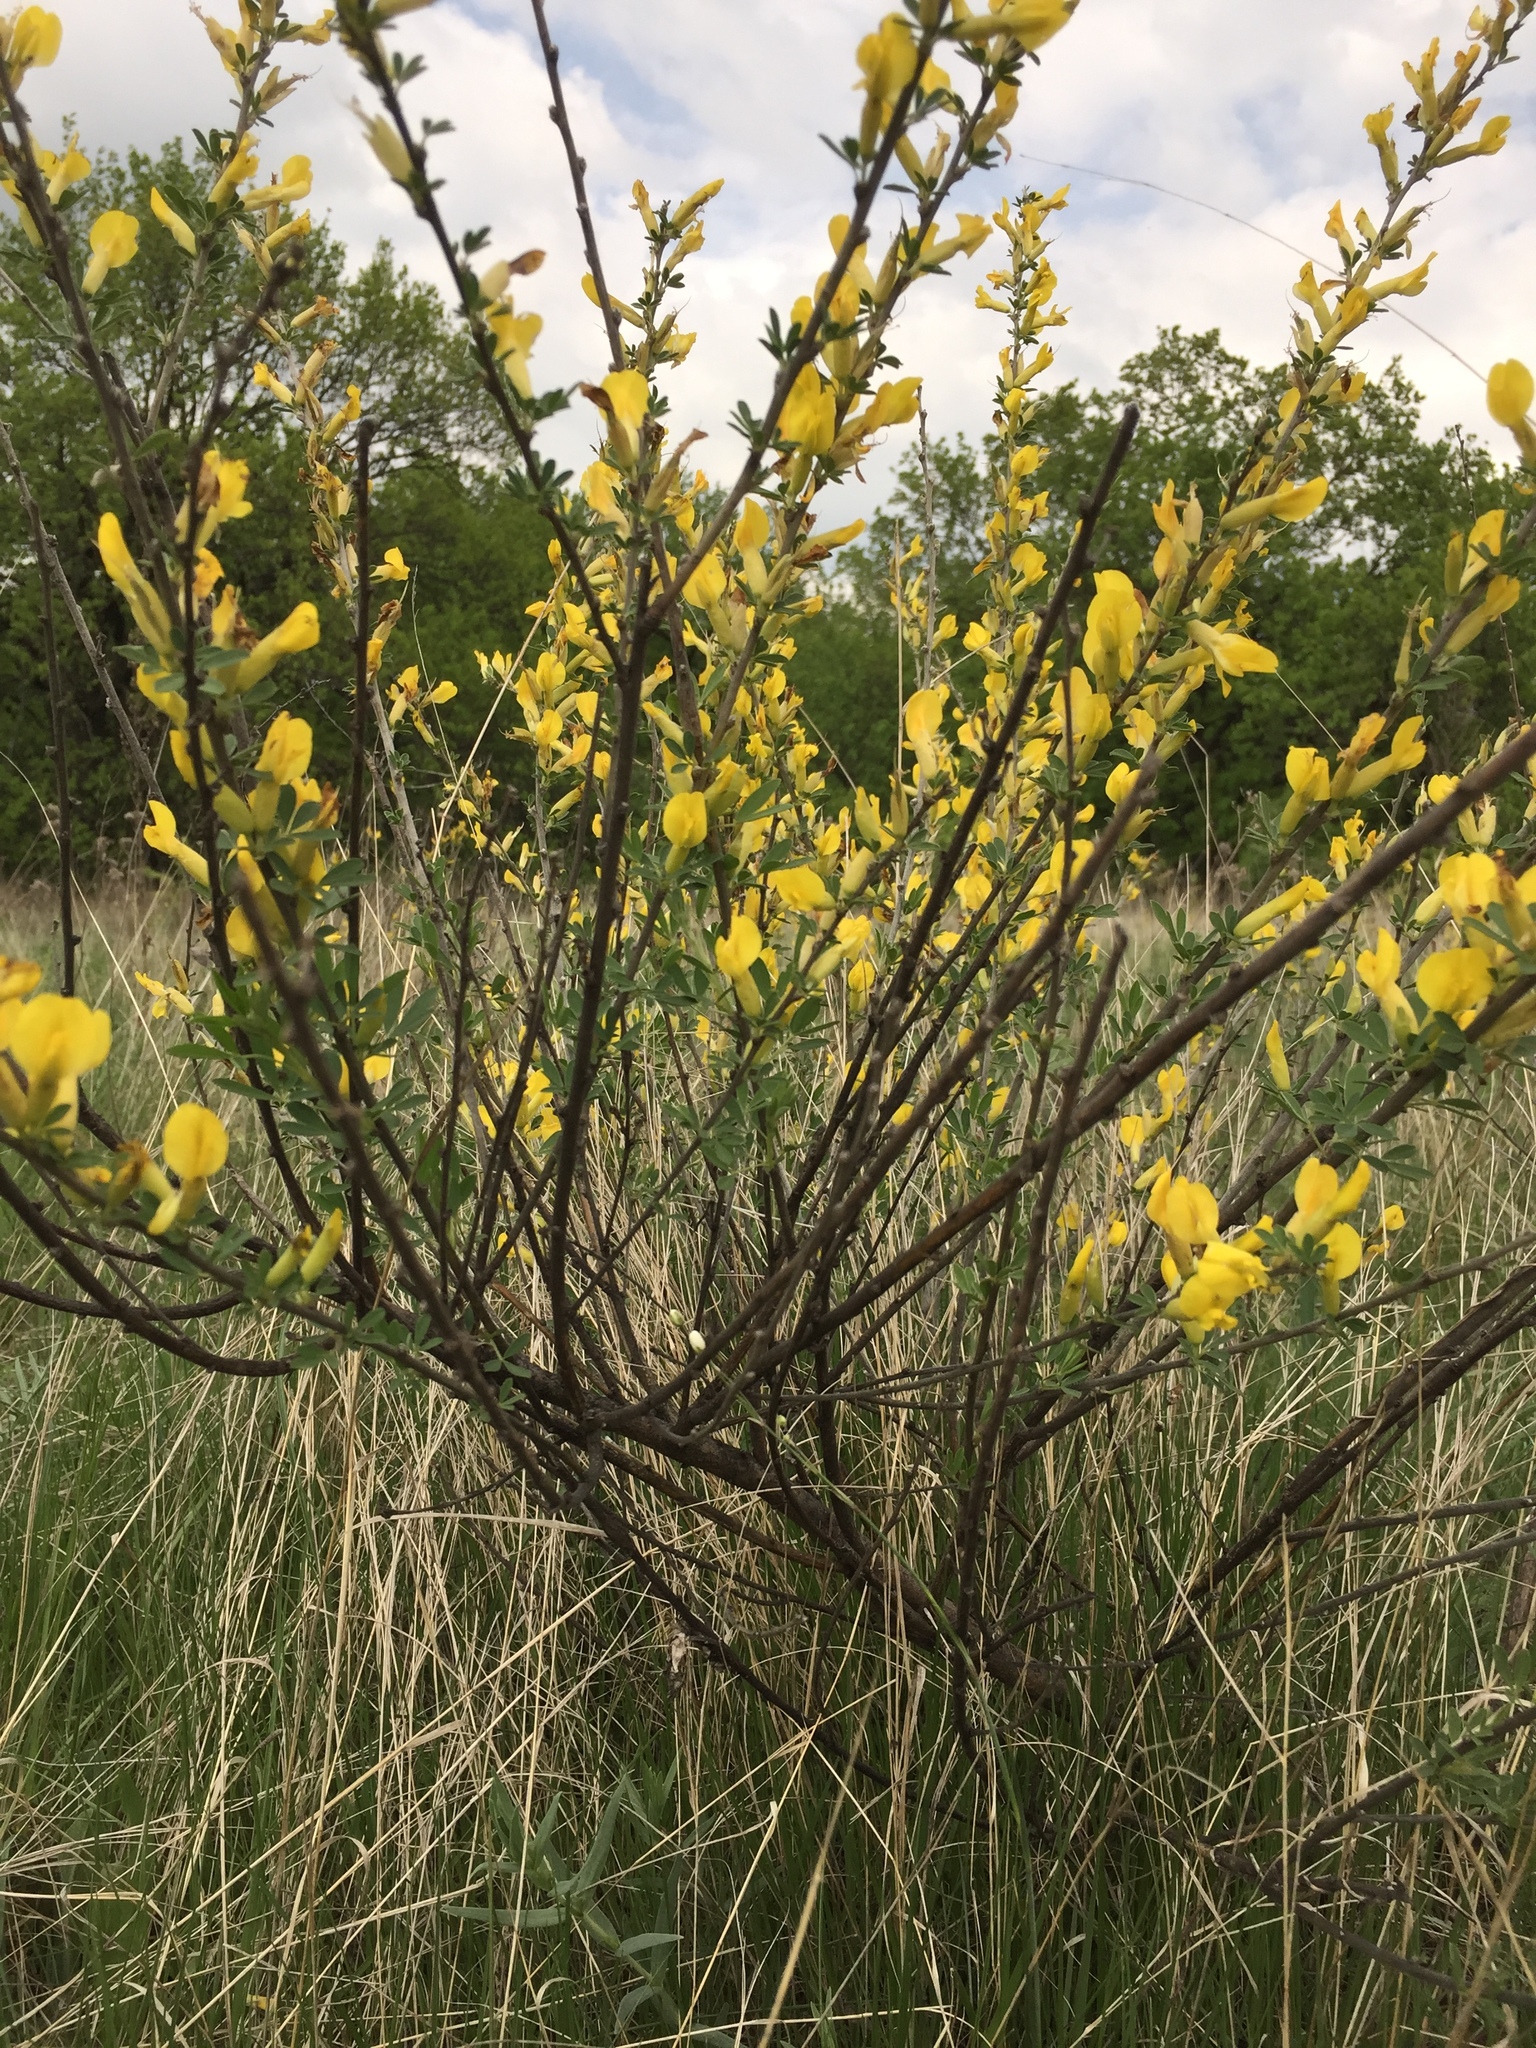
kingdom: Plantae
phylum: Tracheophyta
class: Magnoliopsida
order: Fabales
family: Fabaceae
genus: Chamaecytisus
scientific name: Chamaecytisus ruthenicus
